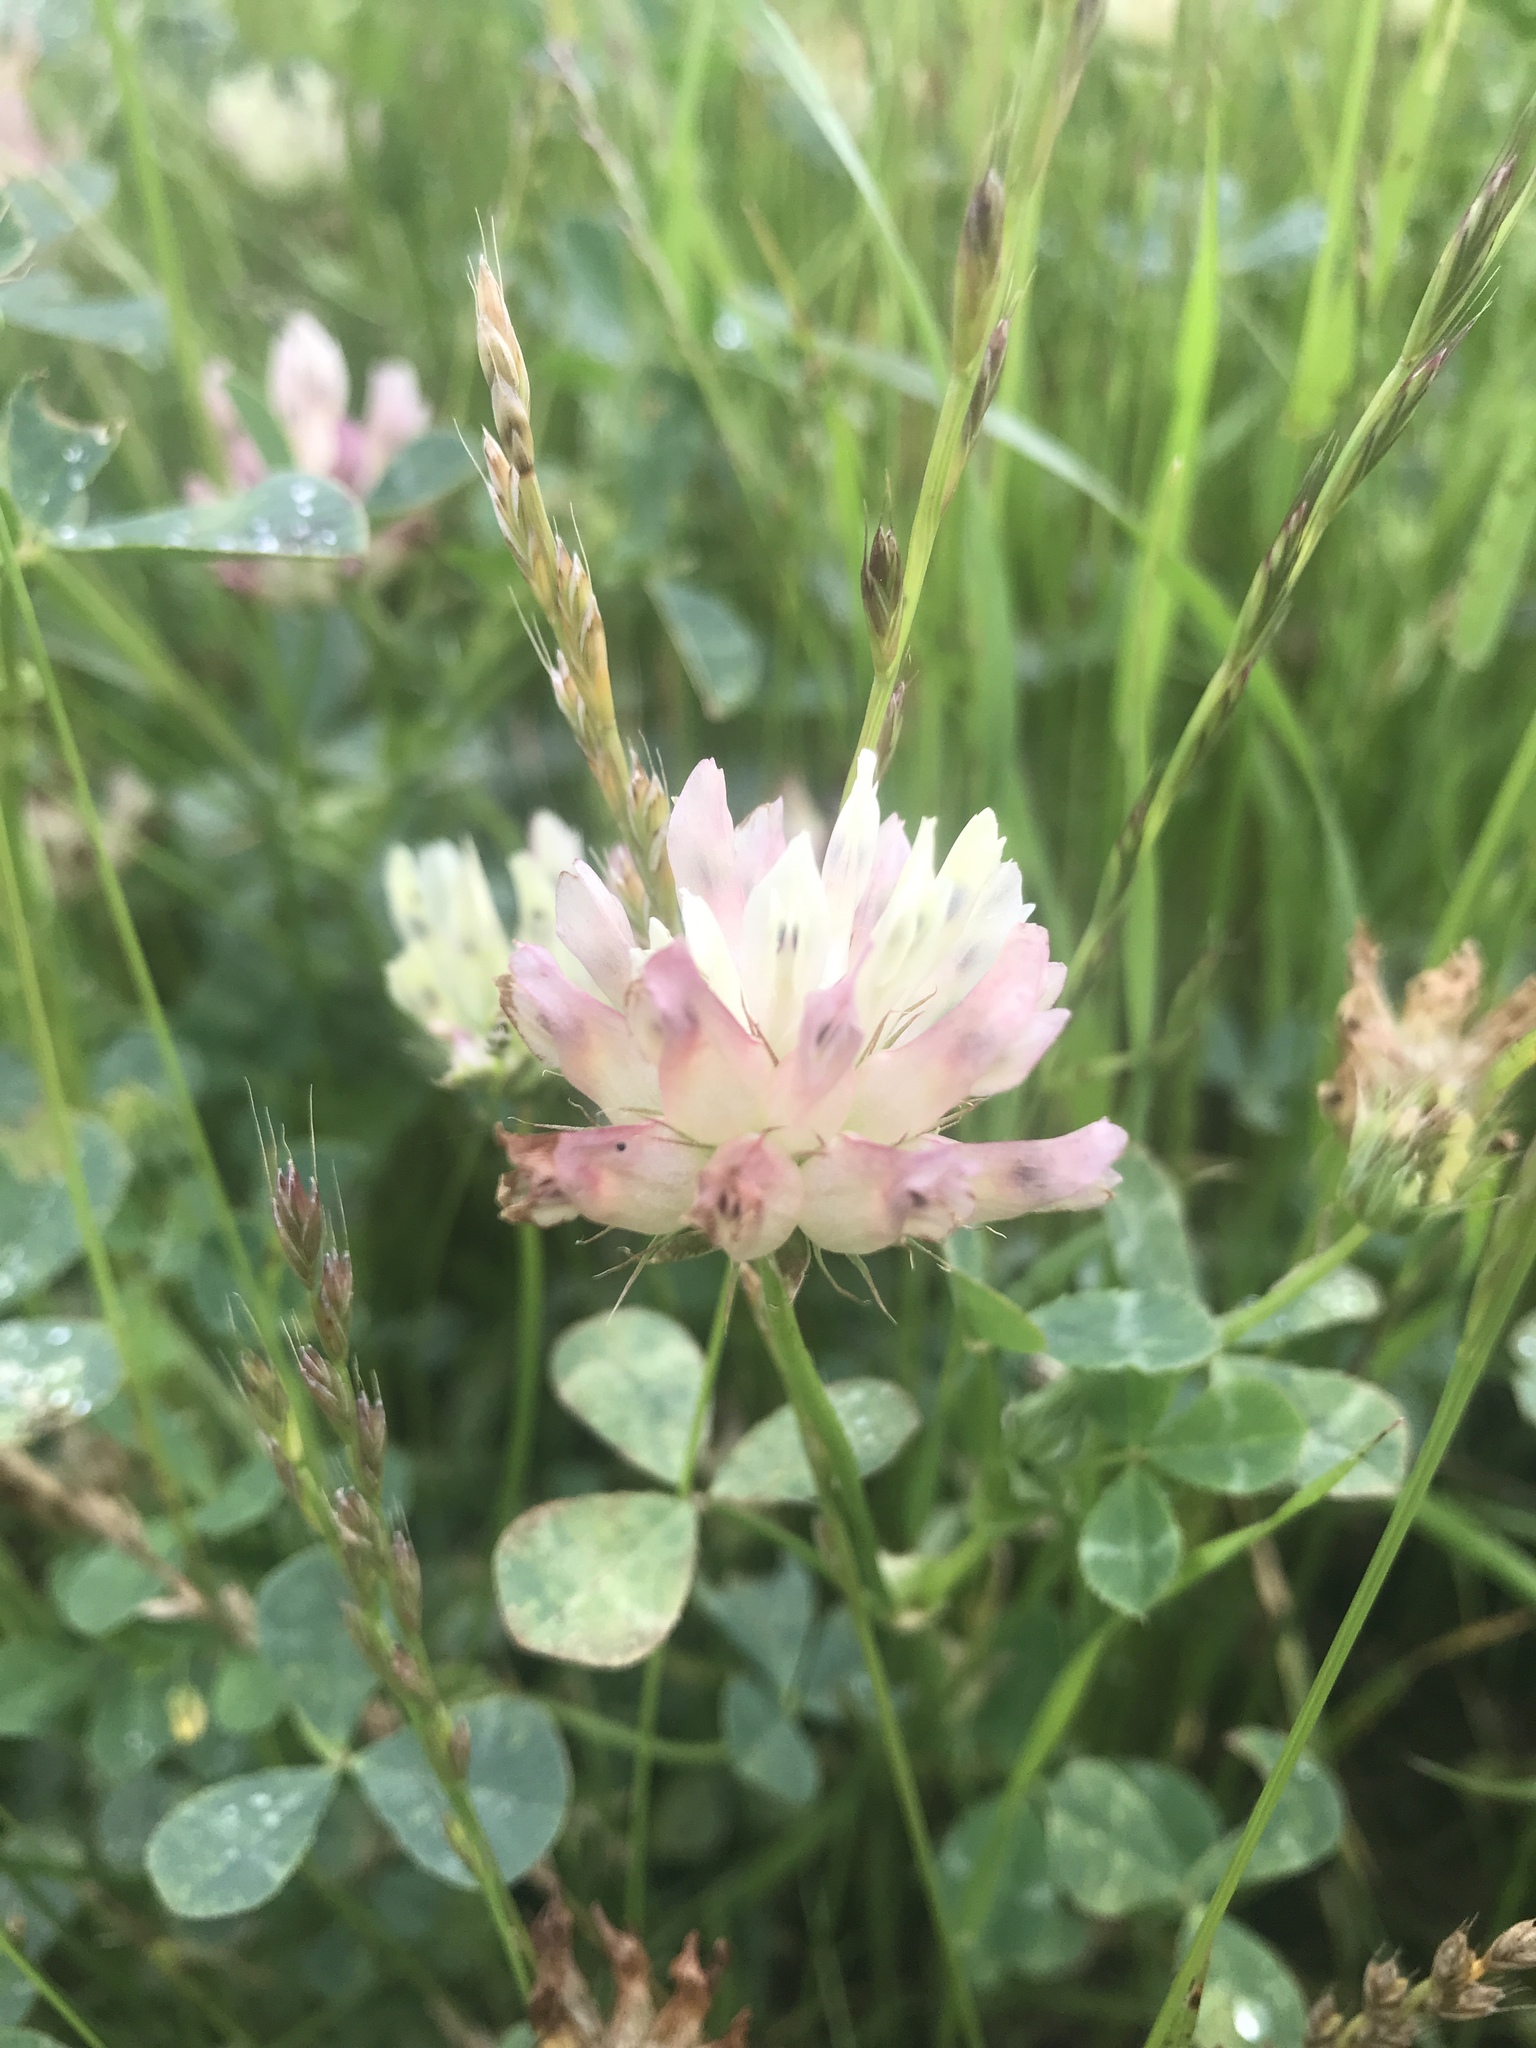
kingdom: Plantae
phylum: Tracheophyta
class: Magnoliopsida
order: Fabales
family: Fabaceae
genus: Trifolium
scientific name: Trifolium fucatum
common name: Puff clover
